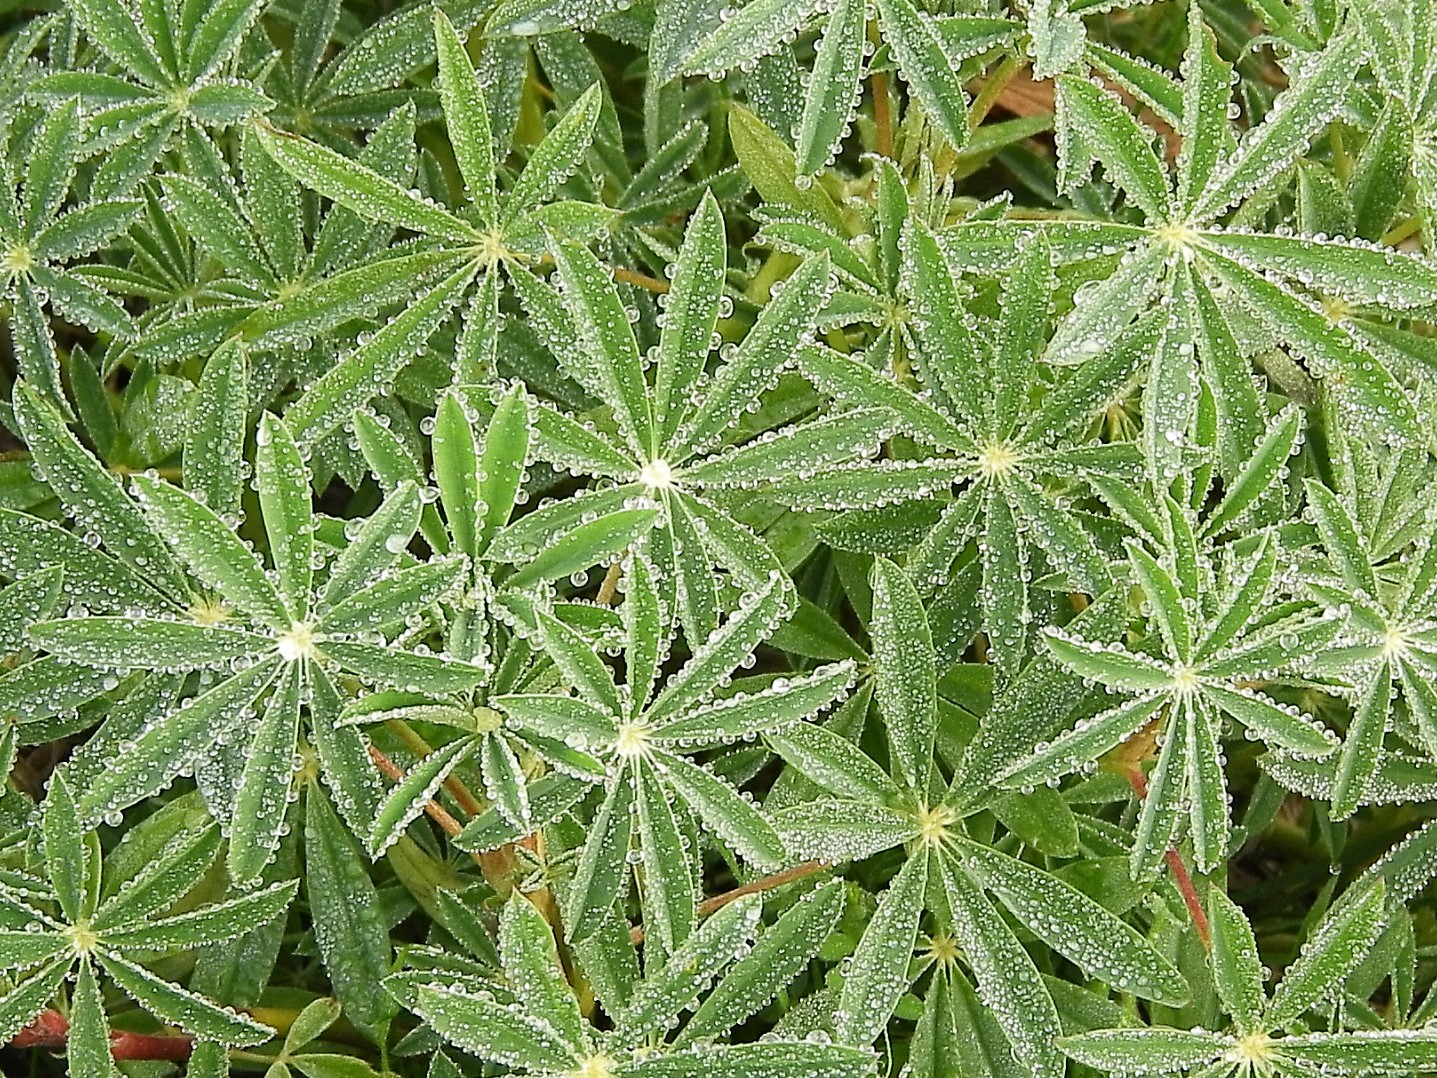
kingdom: Plantae
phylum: Tracheophyta
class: Magnoliopsida
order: Fabales
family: Fabaceae
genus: Lupinus
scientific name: Lupinus arboreus
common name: Yellow bush lupine
